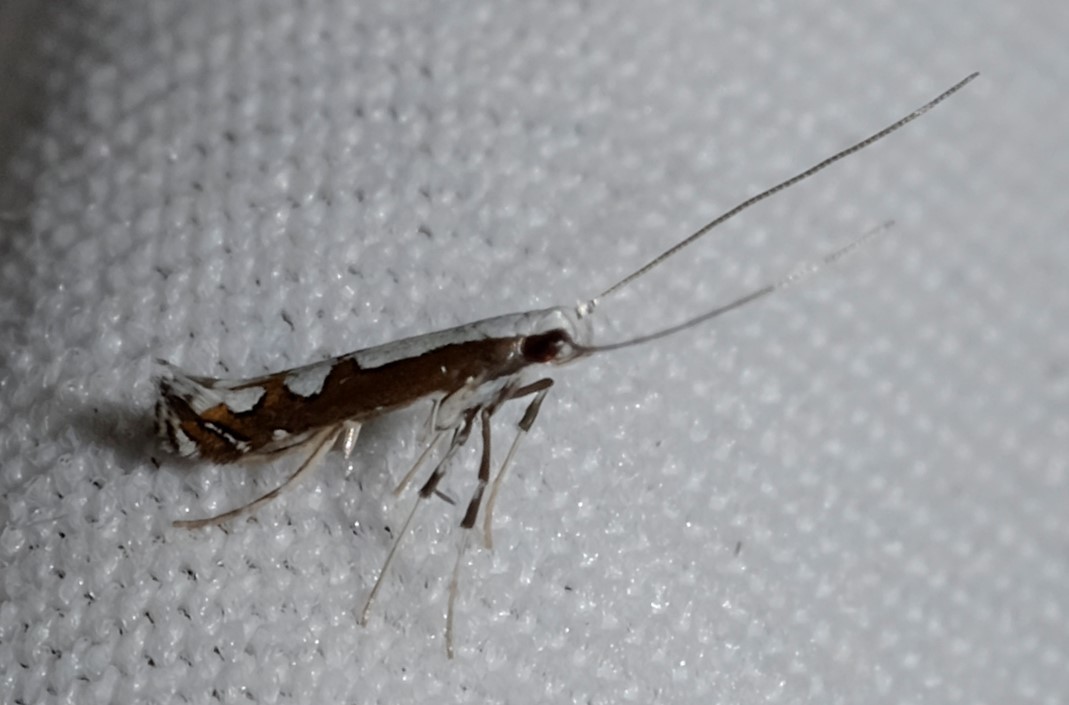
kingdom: Animalia
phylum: Arthropoda
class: Insecta
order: Lepidoptera
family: Gracillariidae
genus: Dialectica
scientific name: Dialectica scalariella
